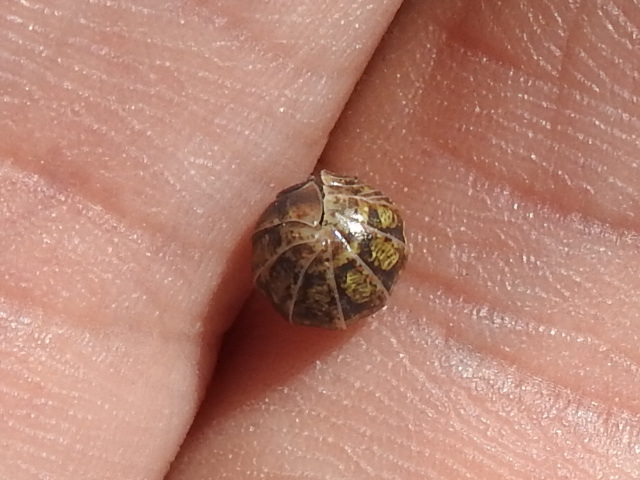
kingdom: Animalia
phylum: Arthropoda
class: Malacostraca
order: Isopoda
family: Armadillidiidae
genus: Armadillidium
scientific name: Armadillidium vulgare
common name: Common pill woodlouse
